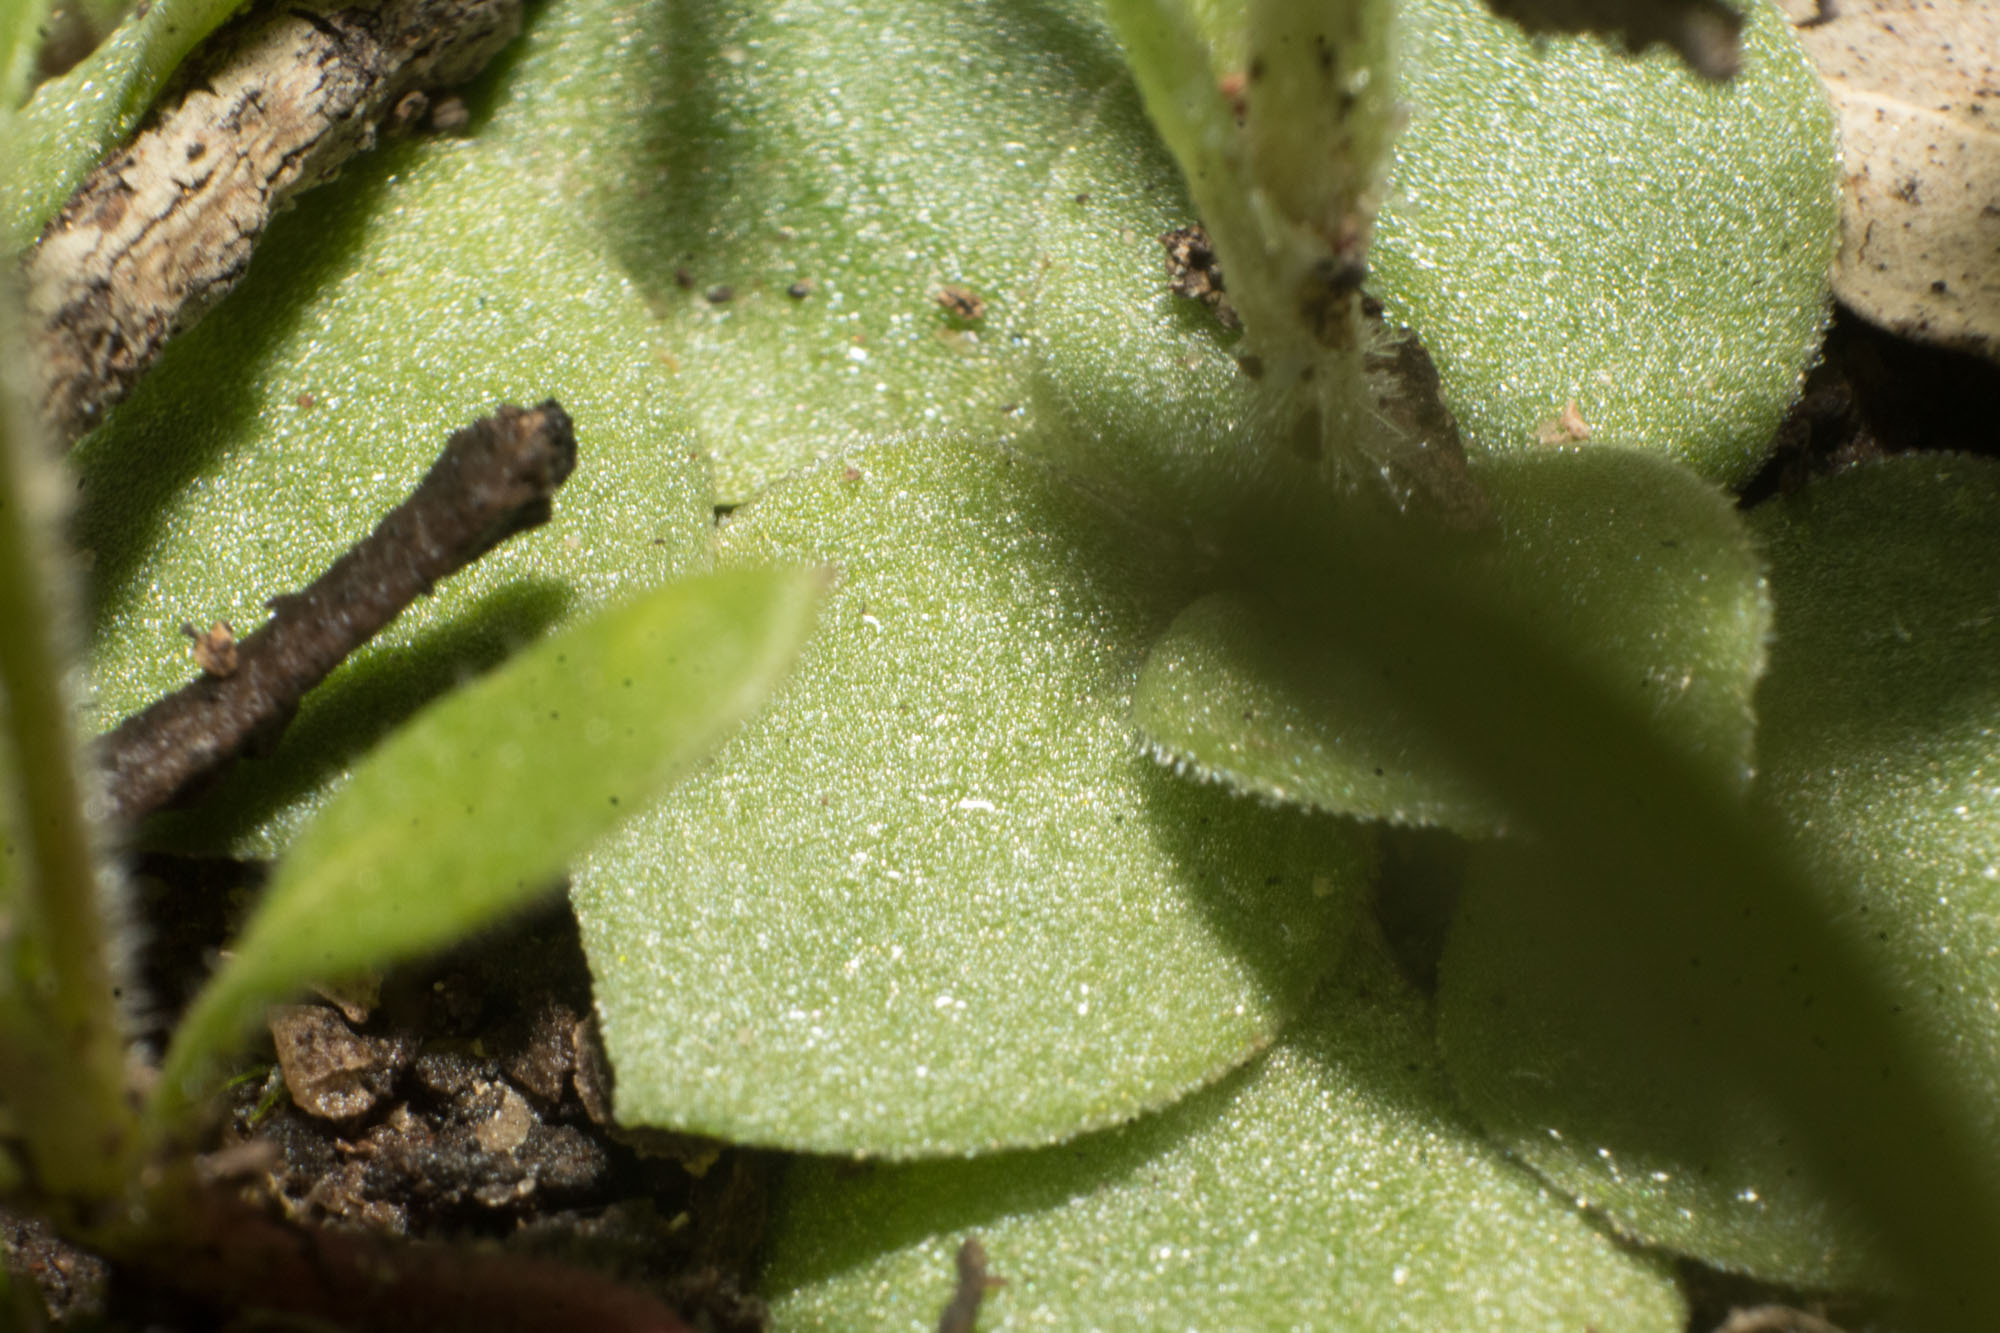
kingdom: Plantae
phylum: Tracheophyta
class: Liliopsida
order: Asparagales
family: Orchidaceae
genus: Pterostylis
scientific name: Pterostylis setulosa
